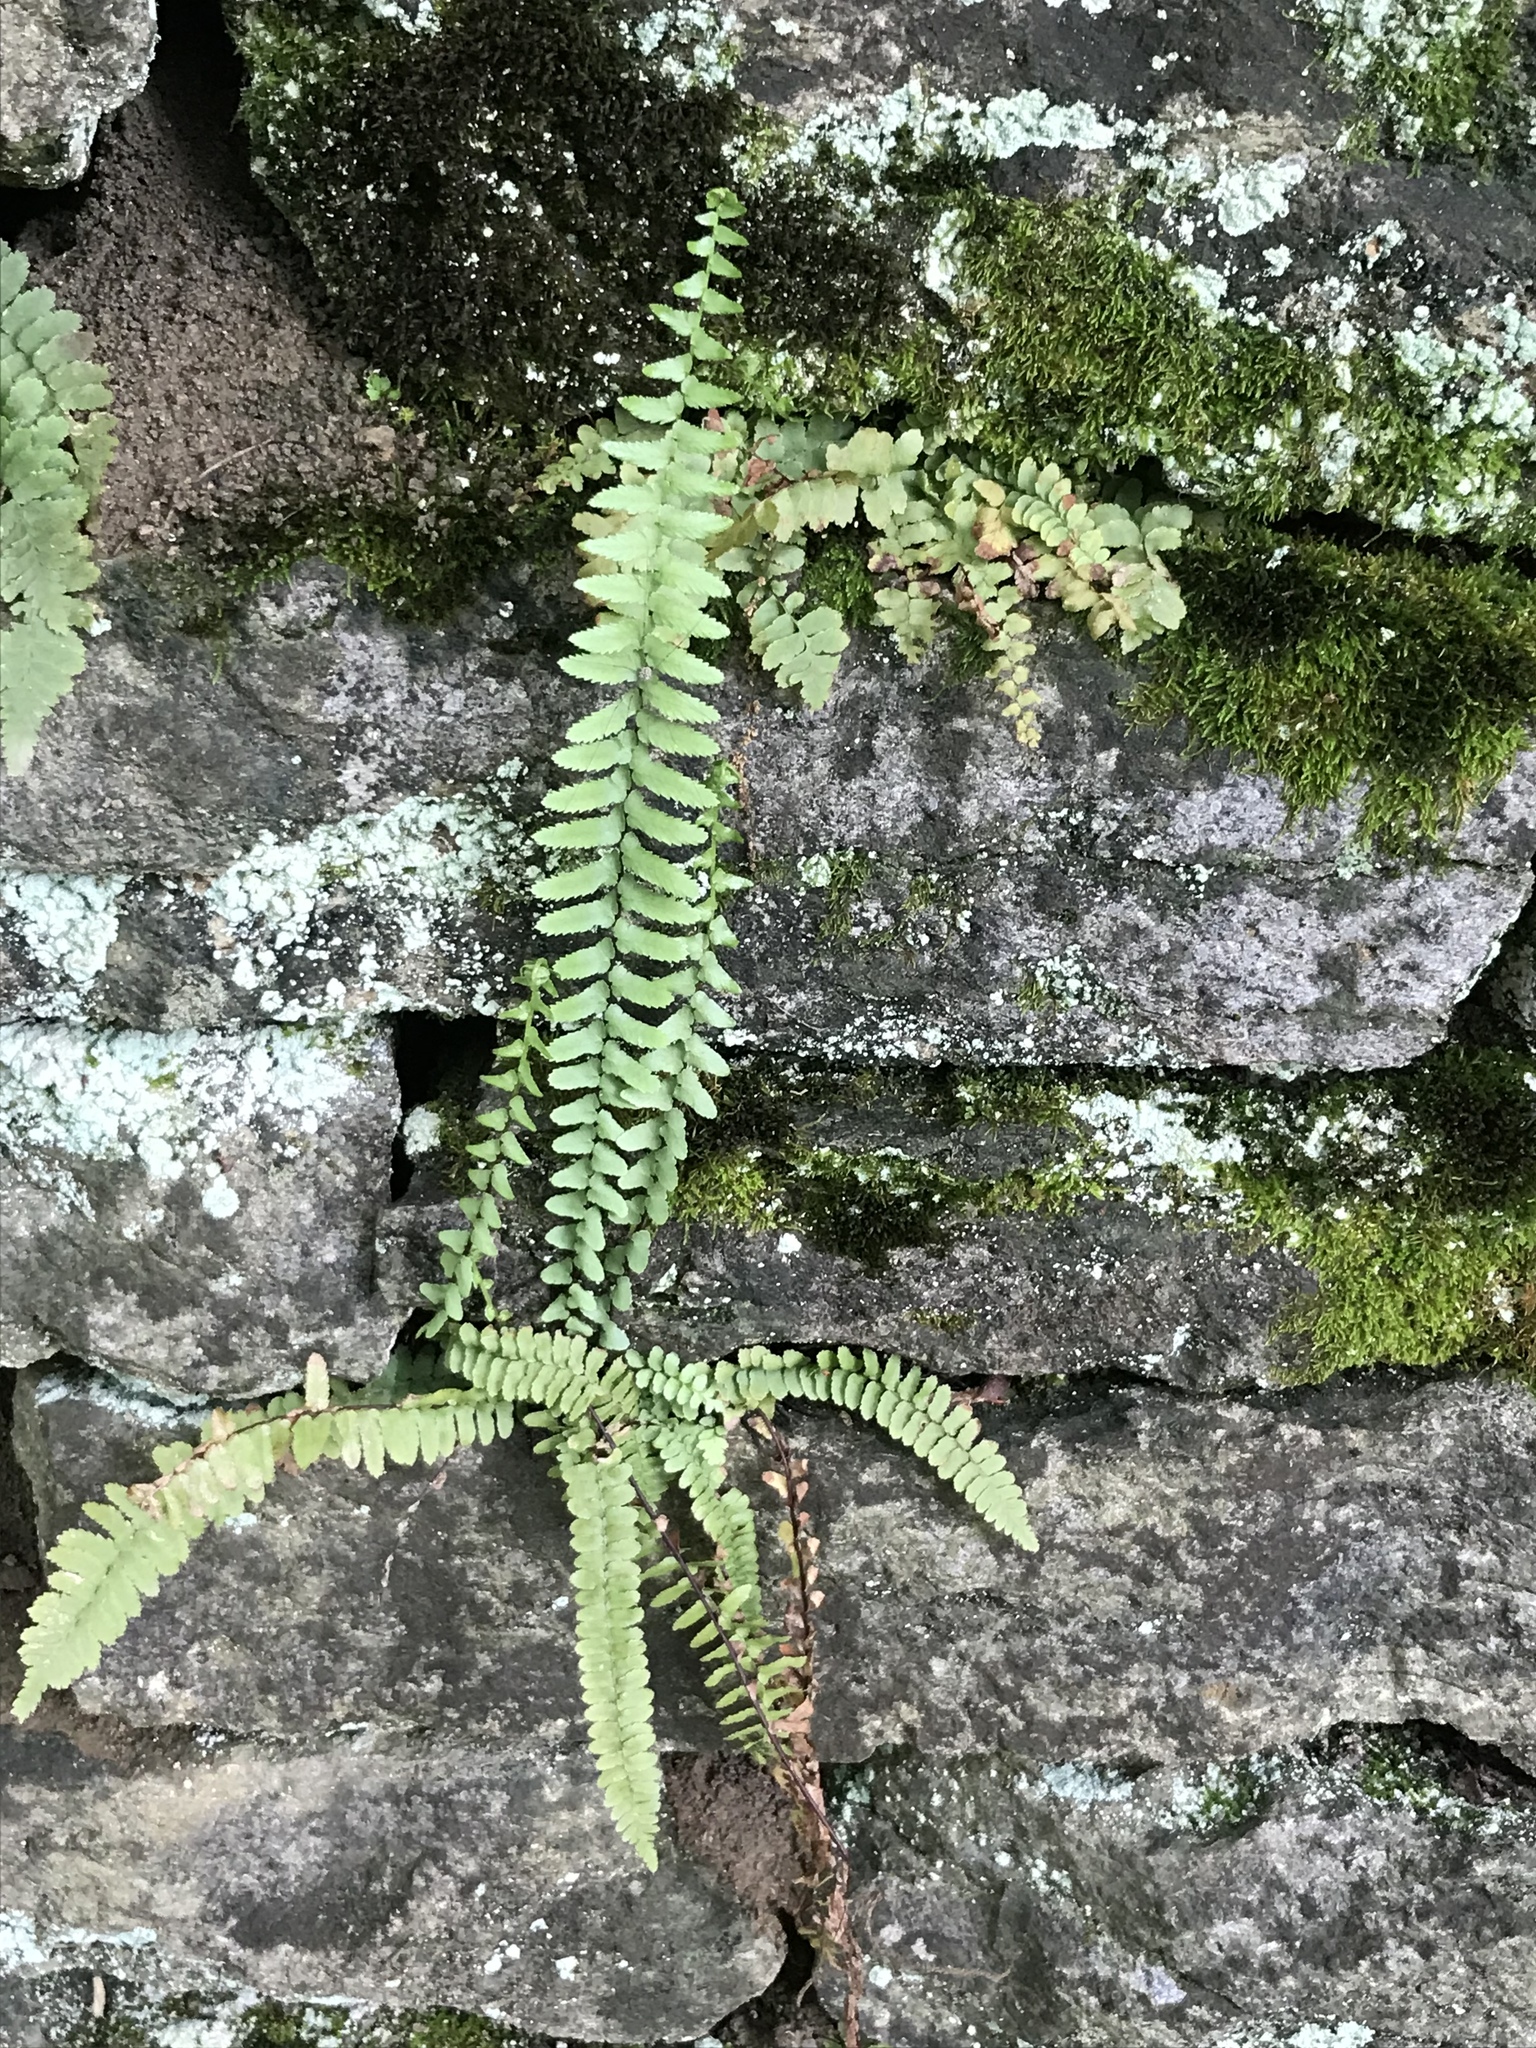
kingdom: Plantae
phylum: Tracheophyta
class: Polypodiopsida
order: Polypodiales
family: Aspleniaceae
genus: Asplenium
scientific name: Asplenium platyneuron
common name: Ebony spleenwort
